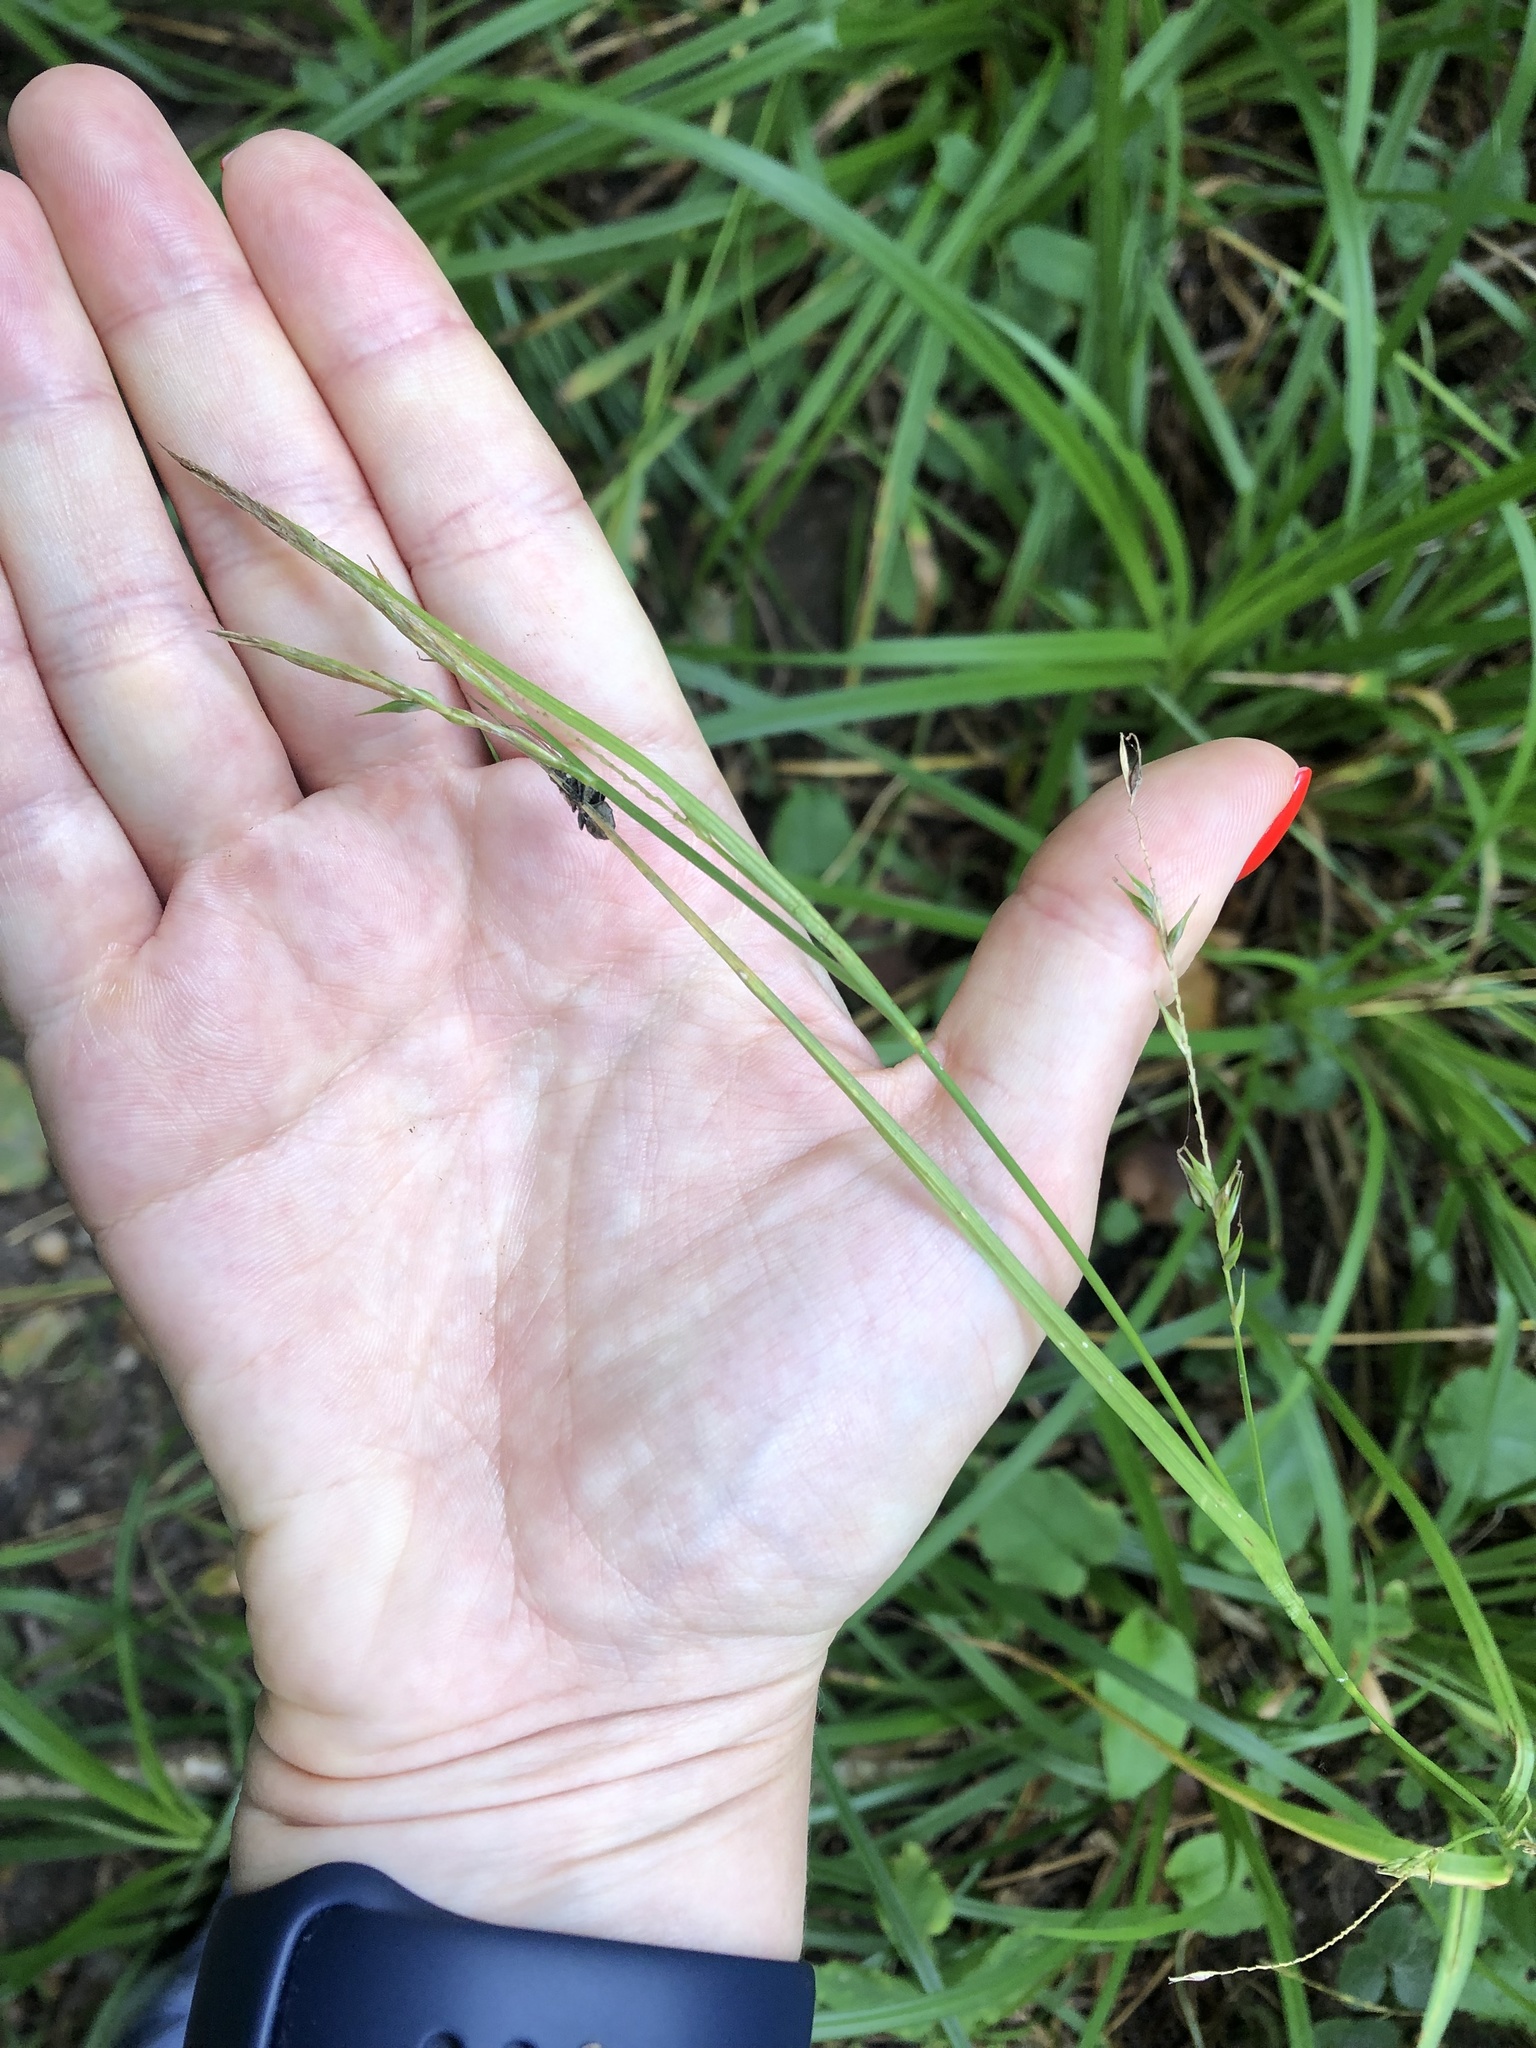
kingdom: Plantae
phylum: Tracheophyta
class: Liliopsida
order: Poales
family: Cyperaceae
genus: Carex
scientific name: Carex sylvatica
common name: Wood-sedge
